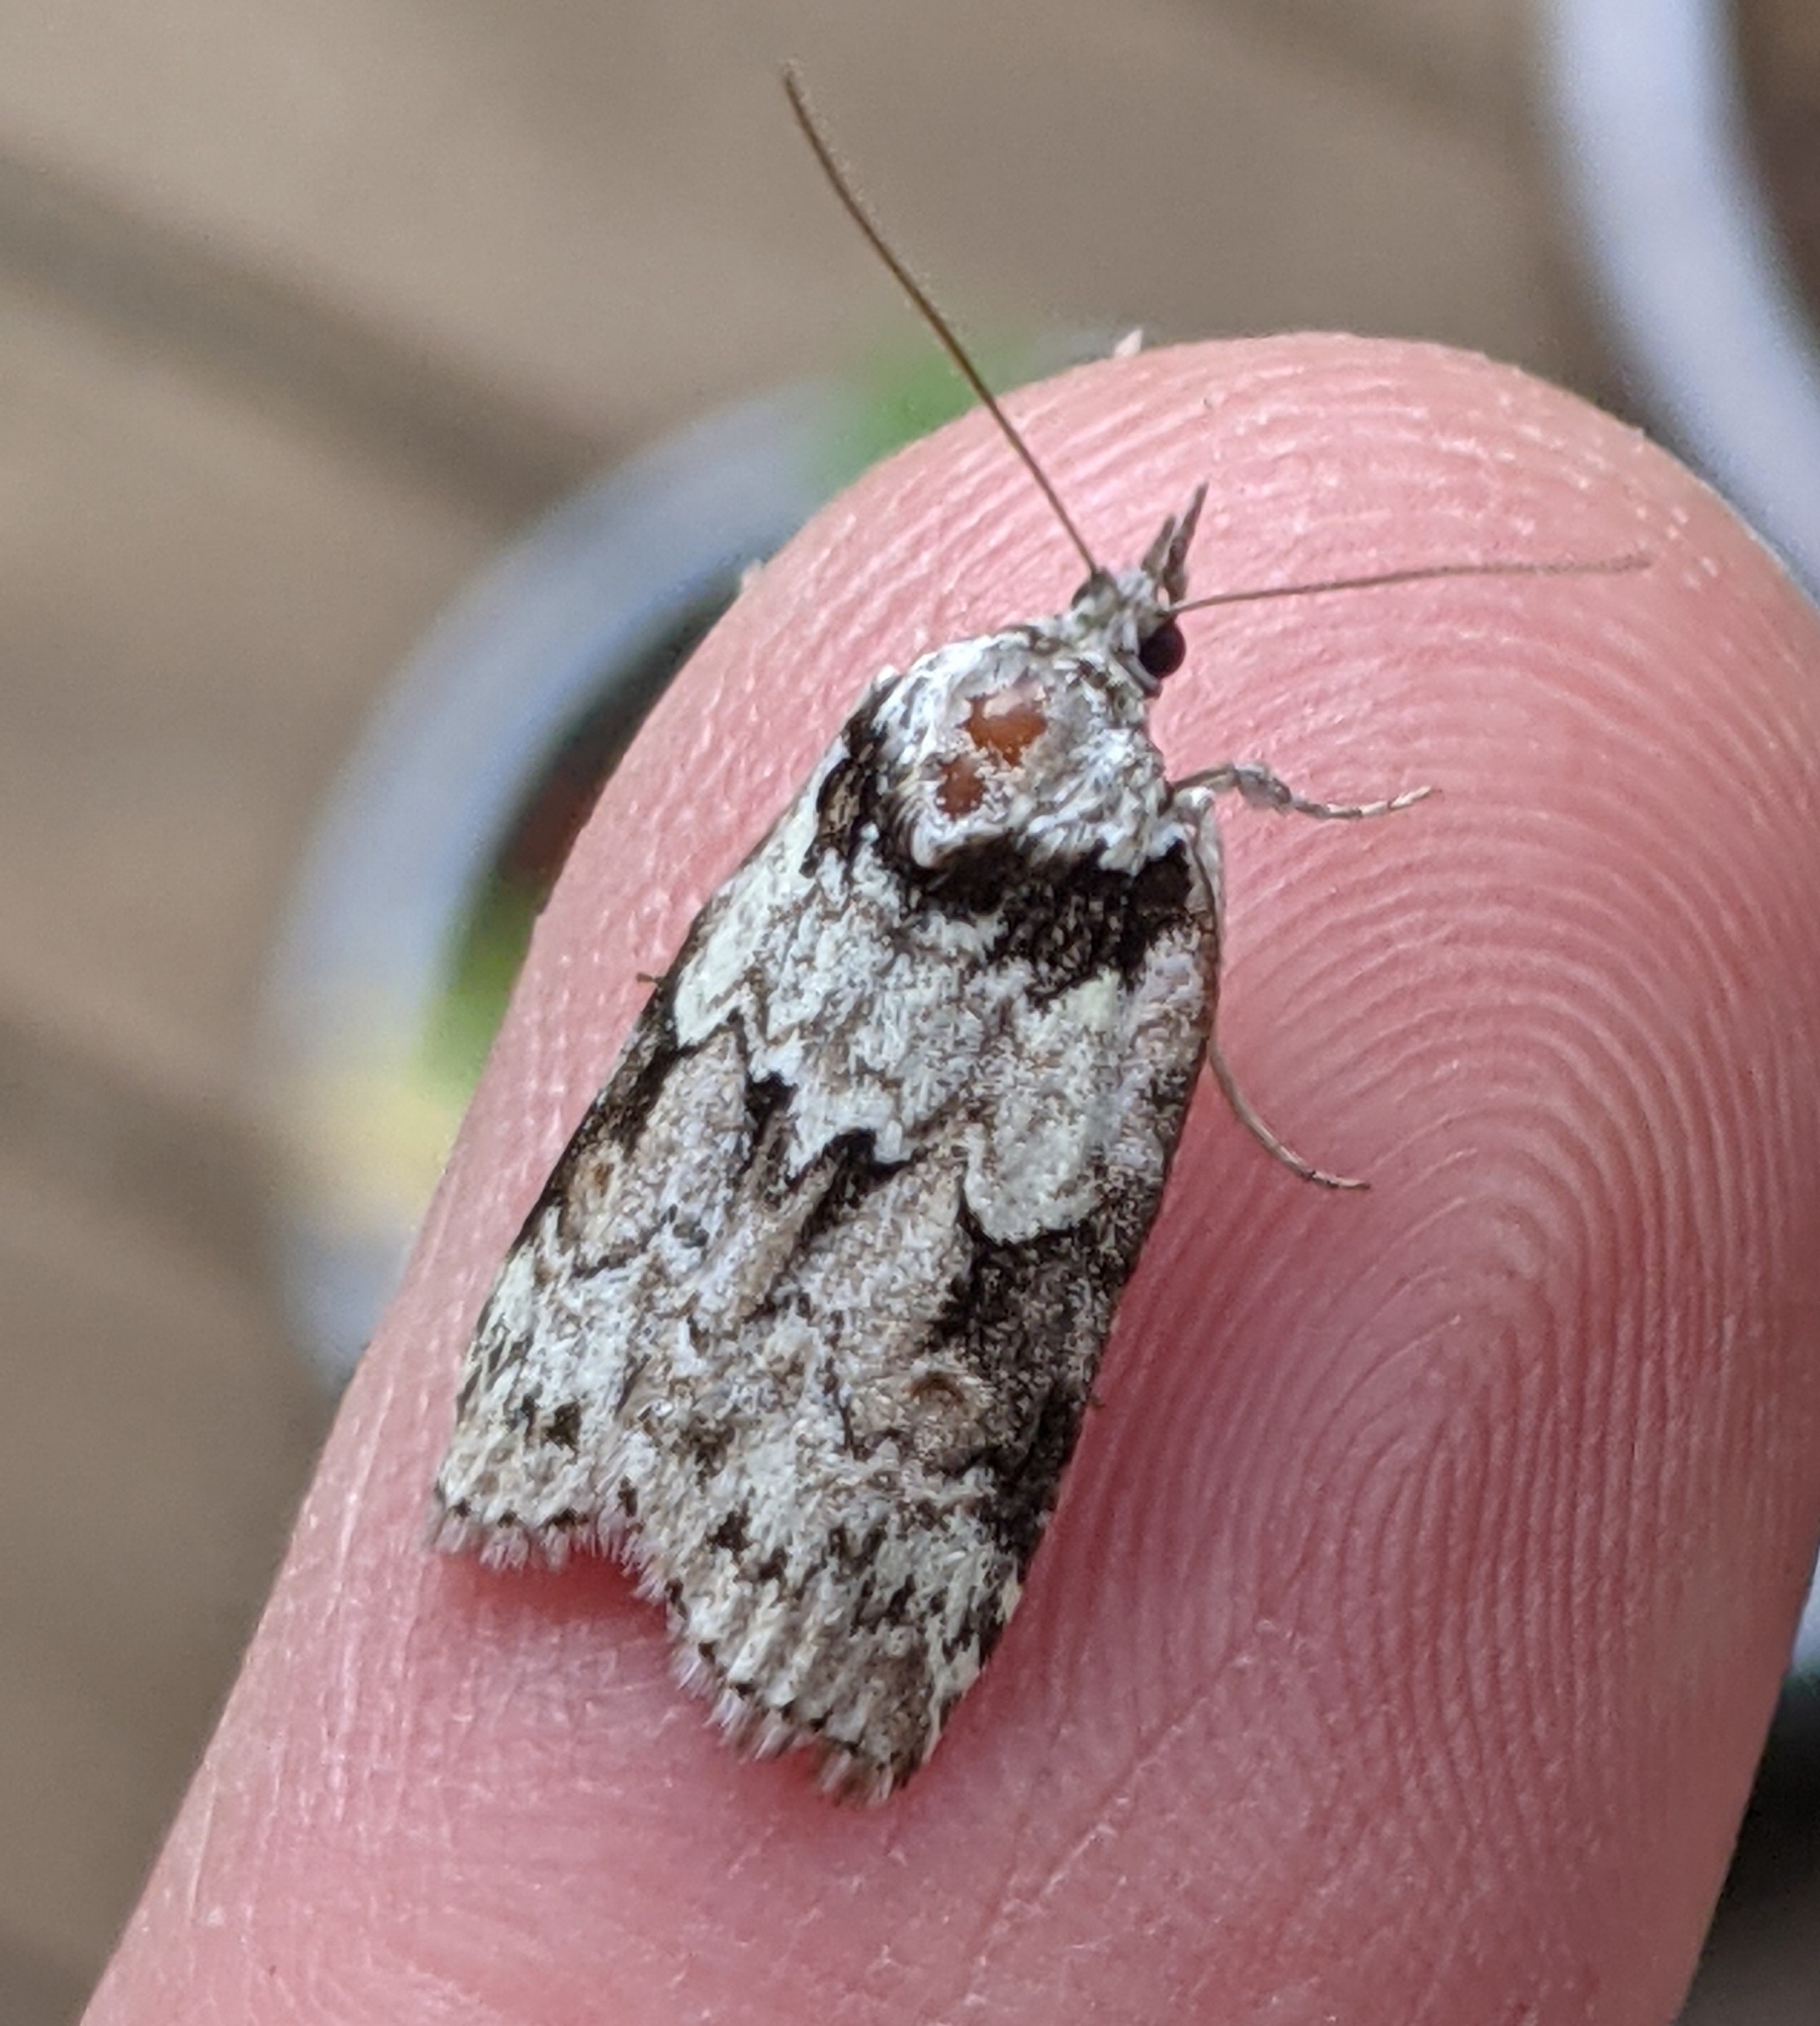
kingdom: Animalia
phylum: Arthropoda
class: Insecta
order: Lepidoptera
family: Nolidae
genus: Nycteola
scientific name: Nycteola frigidana
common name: Frigid owlet
